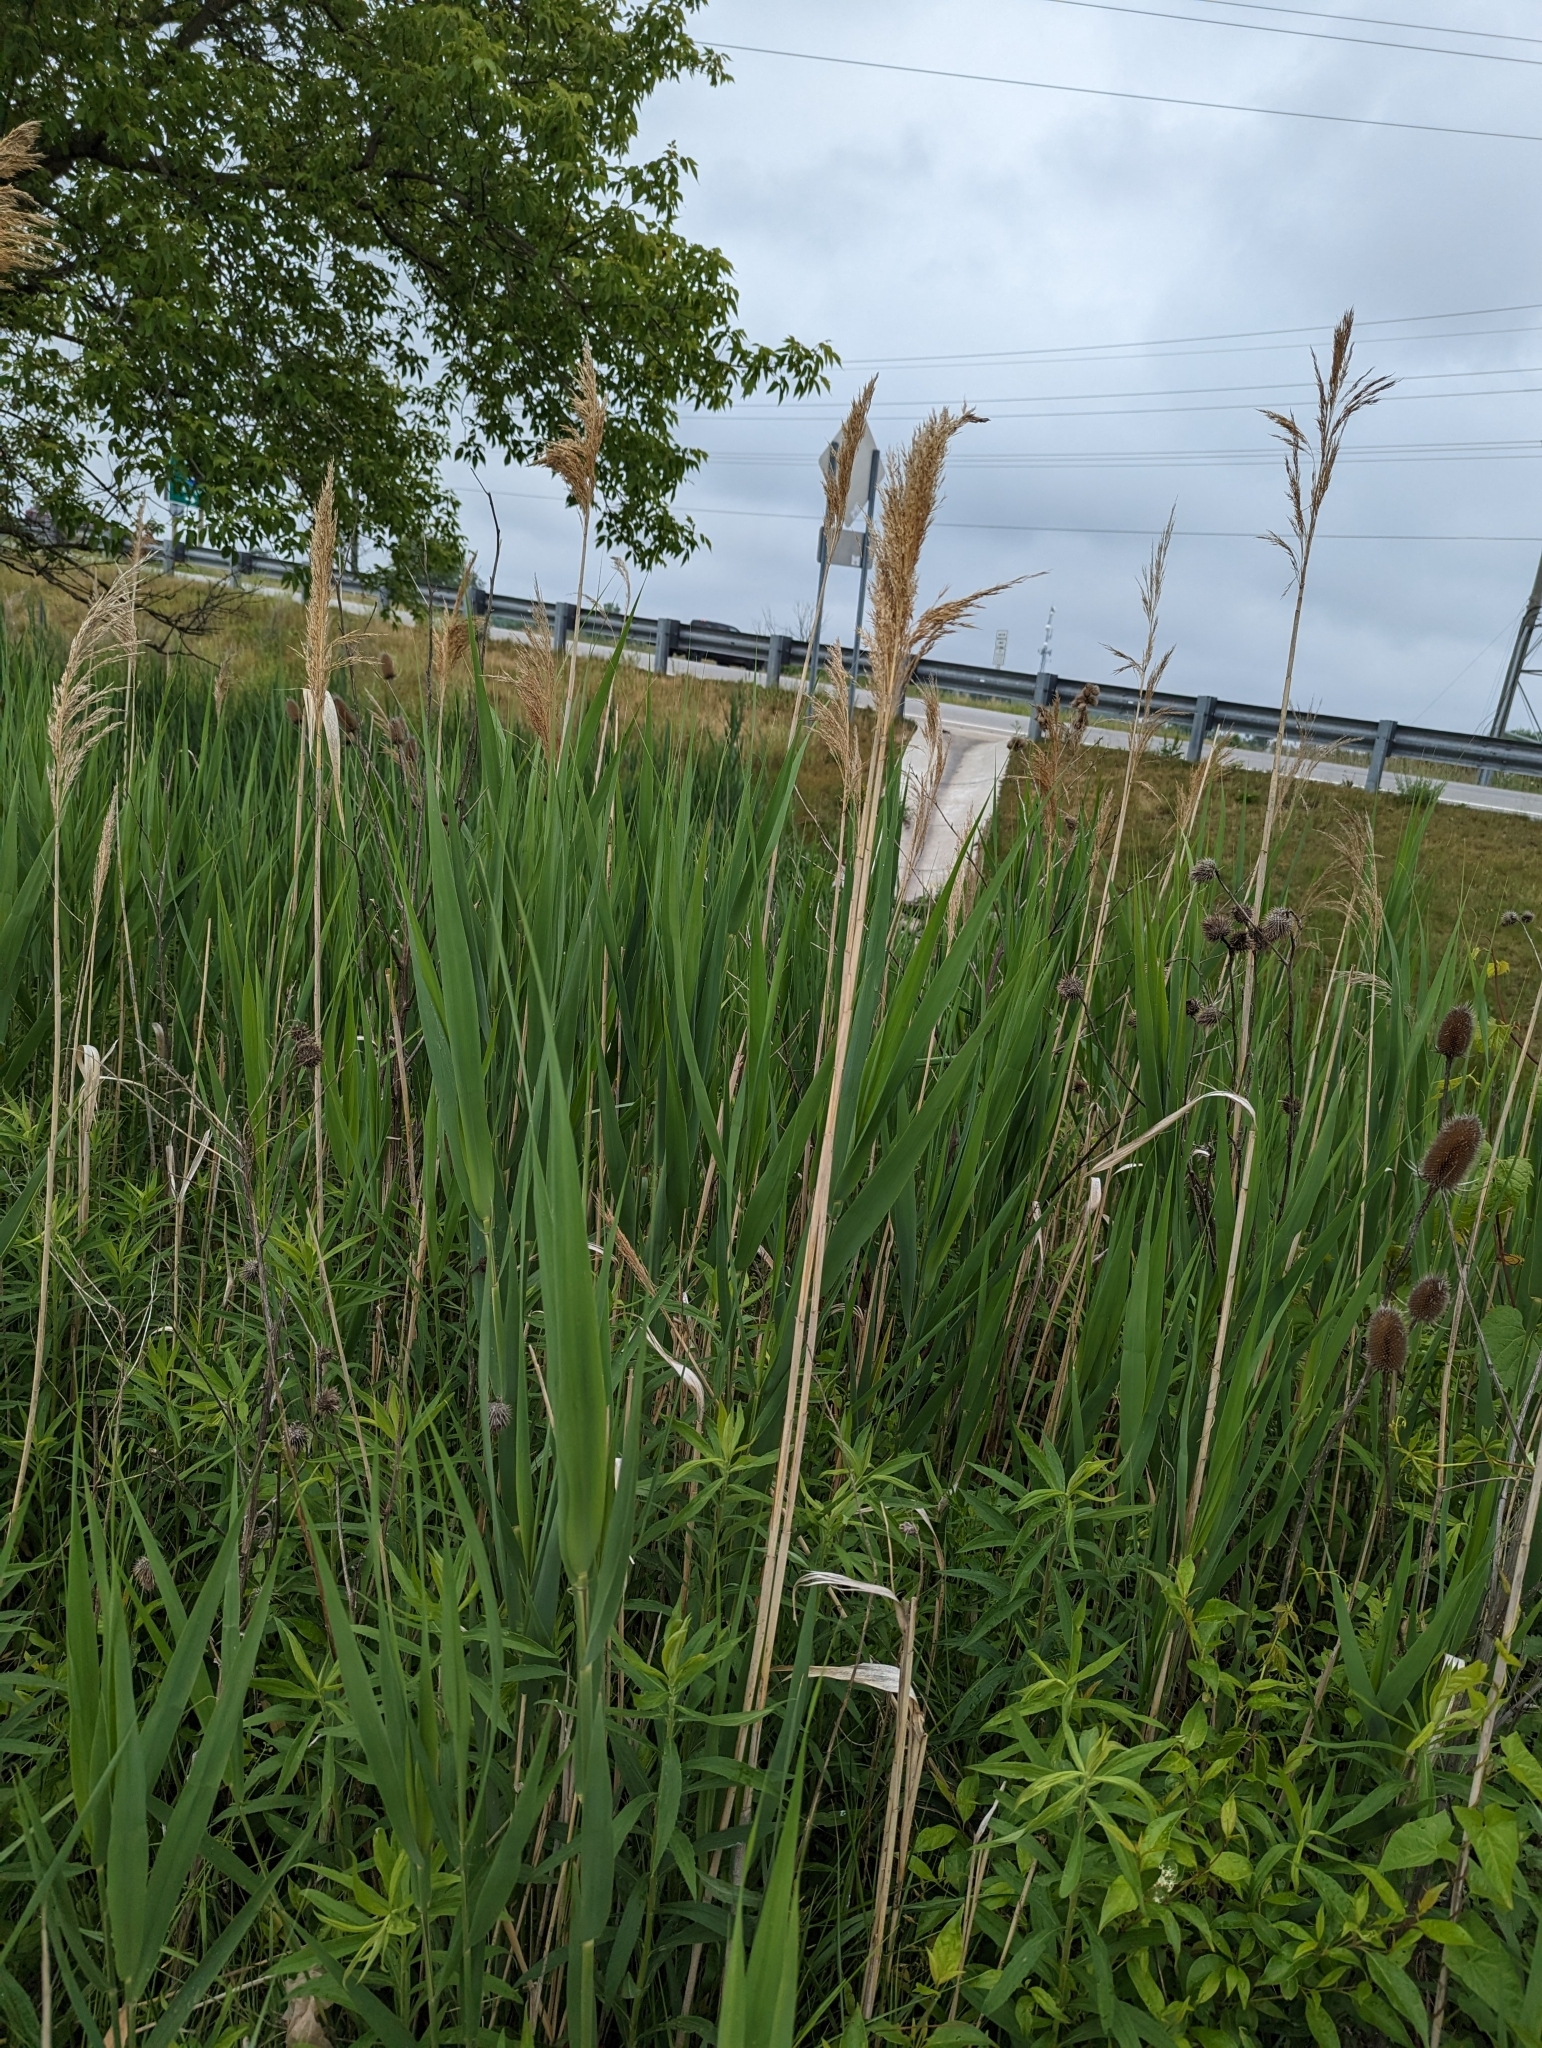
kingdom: Plantae
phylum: Tracheophyta
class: Liliopsida
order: Poales
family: Poaceae
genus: Phragmites
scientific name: Phragmites australis
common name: Common reed
